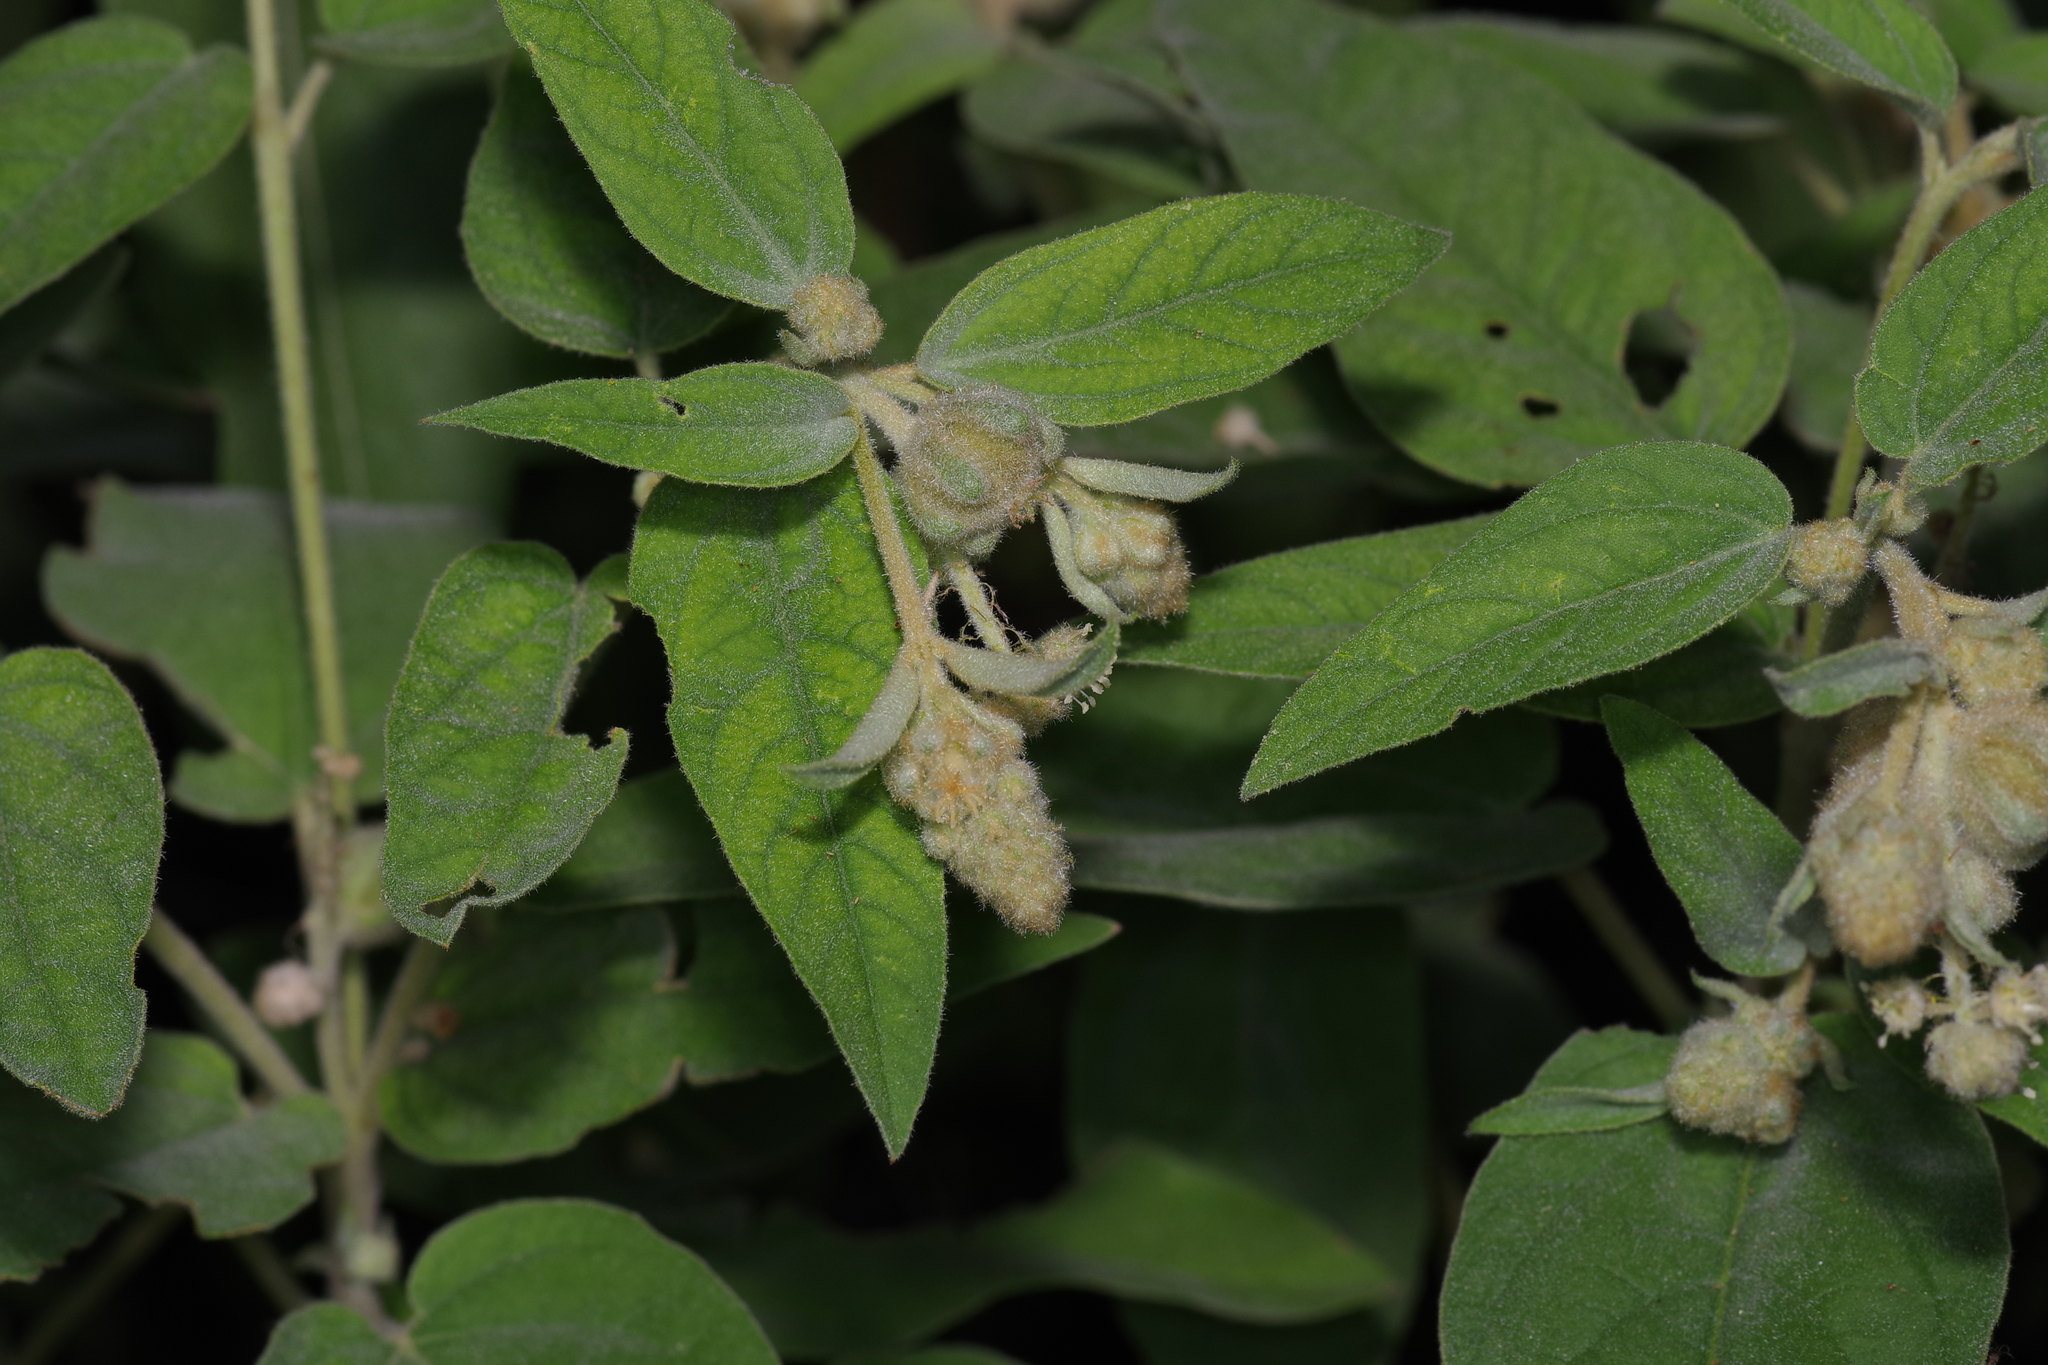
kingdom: Plantae
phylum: Tracheophyta
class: Magnoliopsida
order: Malpighiales
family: Euphorbiaceae
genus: Croton
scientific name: Croton lindheimeri
